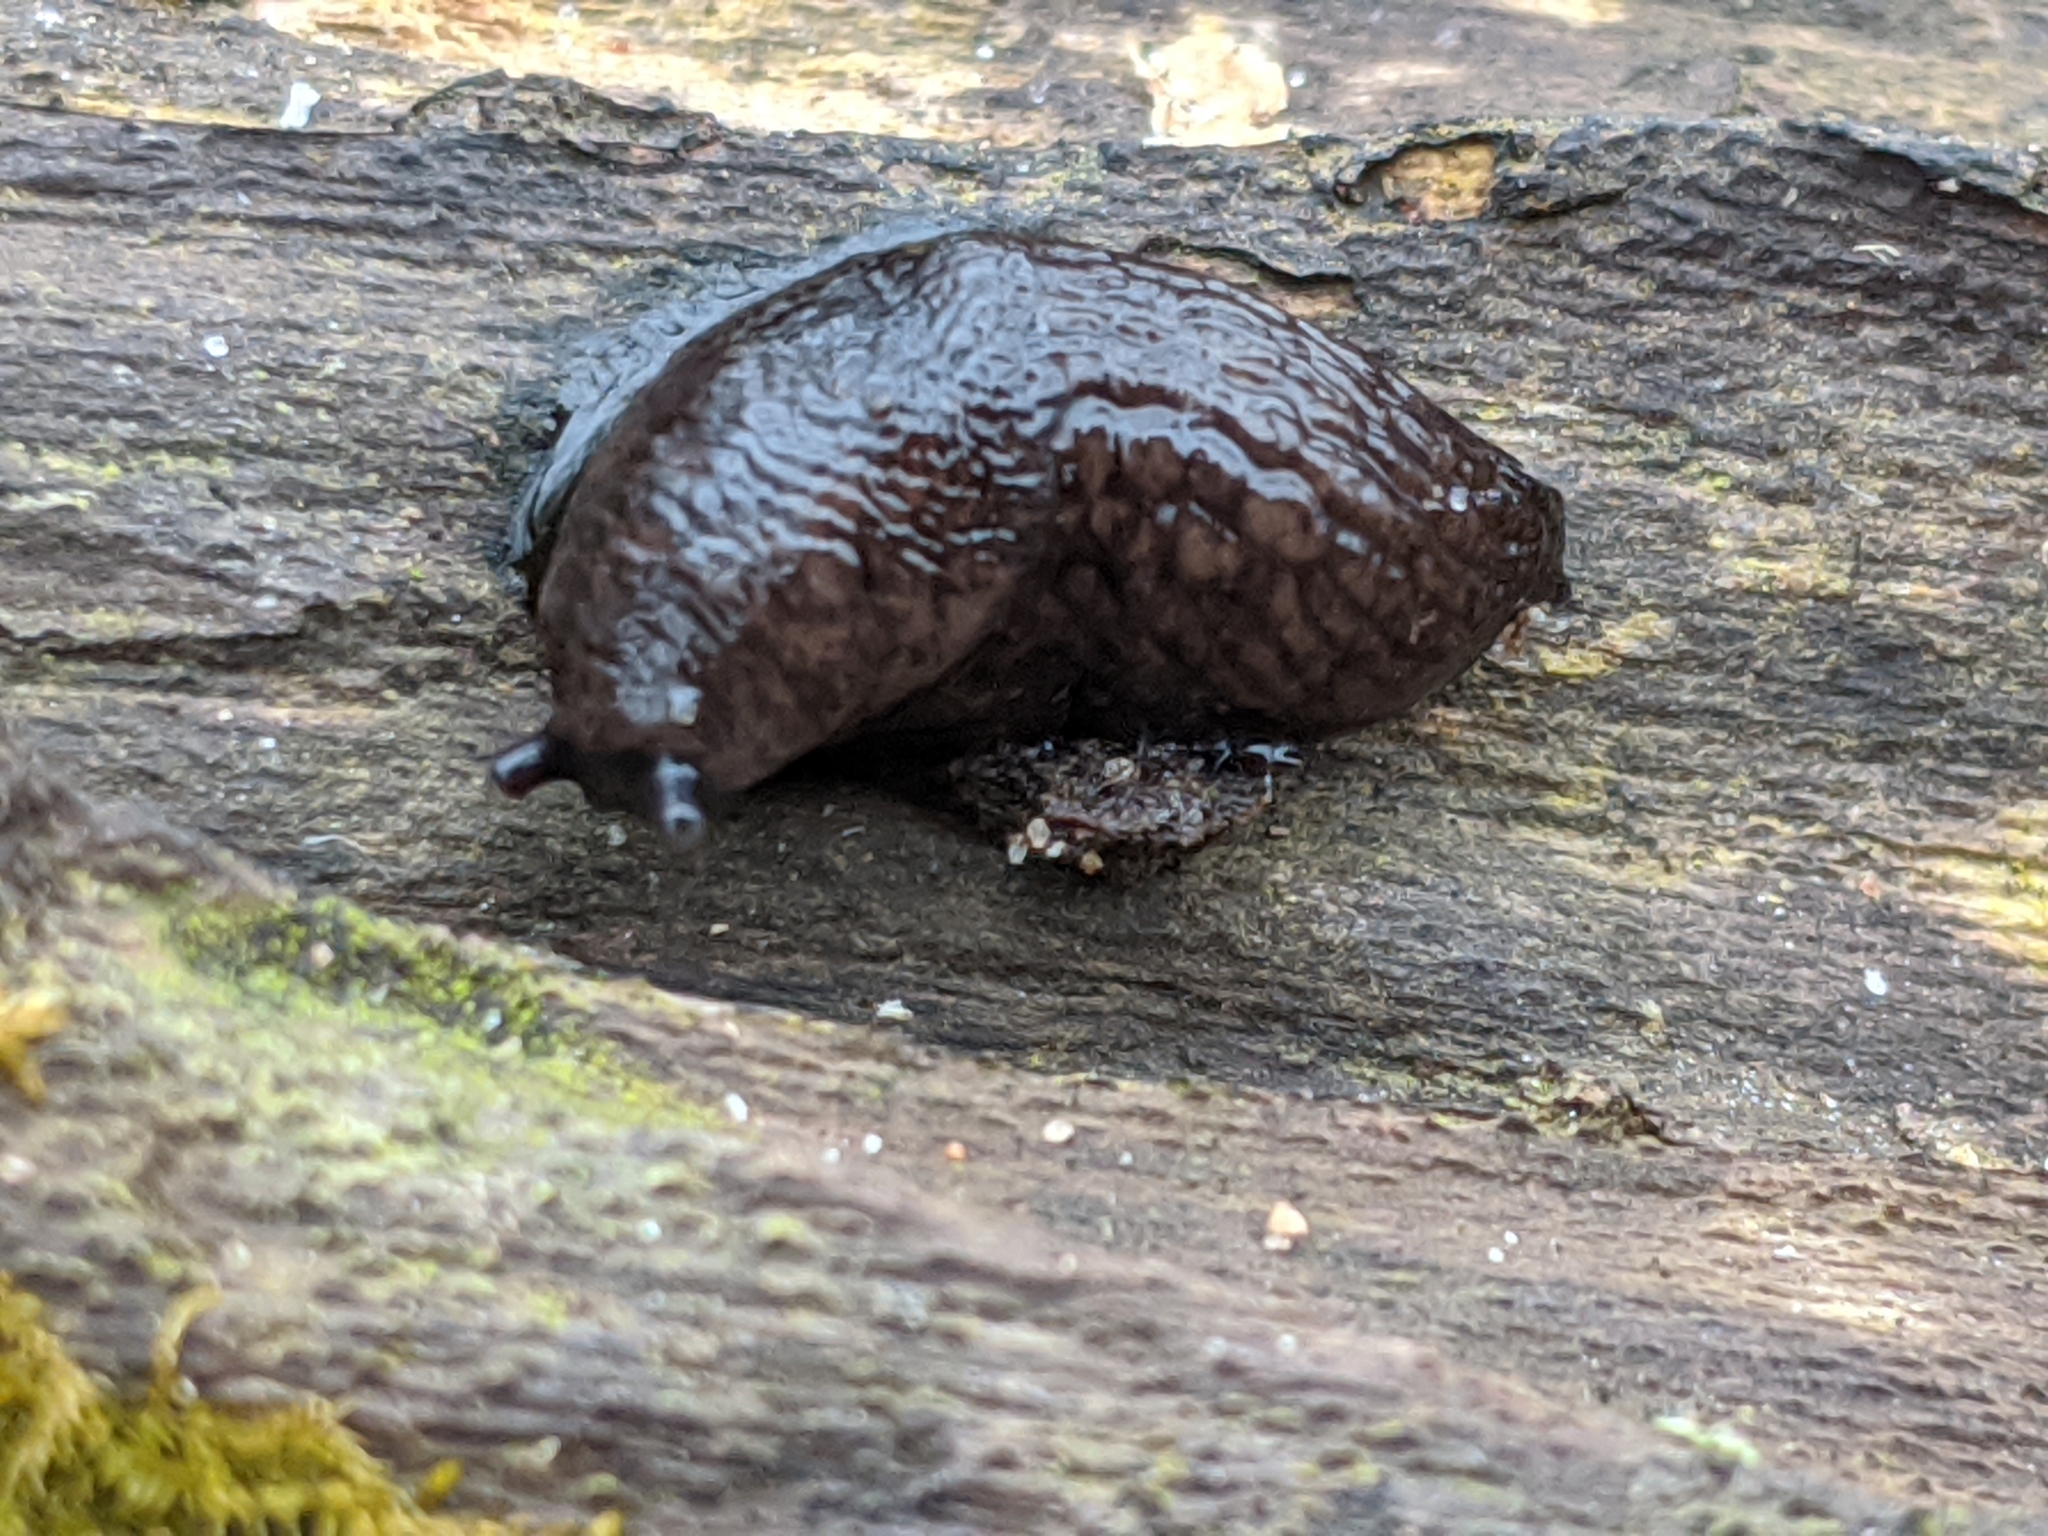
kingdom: Animalia
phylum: Mollusca
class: Gastropoda
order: Stylommatophora
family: Agriolimacidae
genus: Deroceras
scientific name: Deroceras reticulatum
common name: Gray field slug
